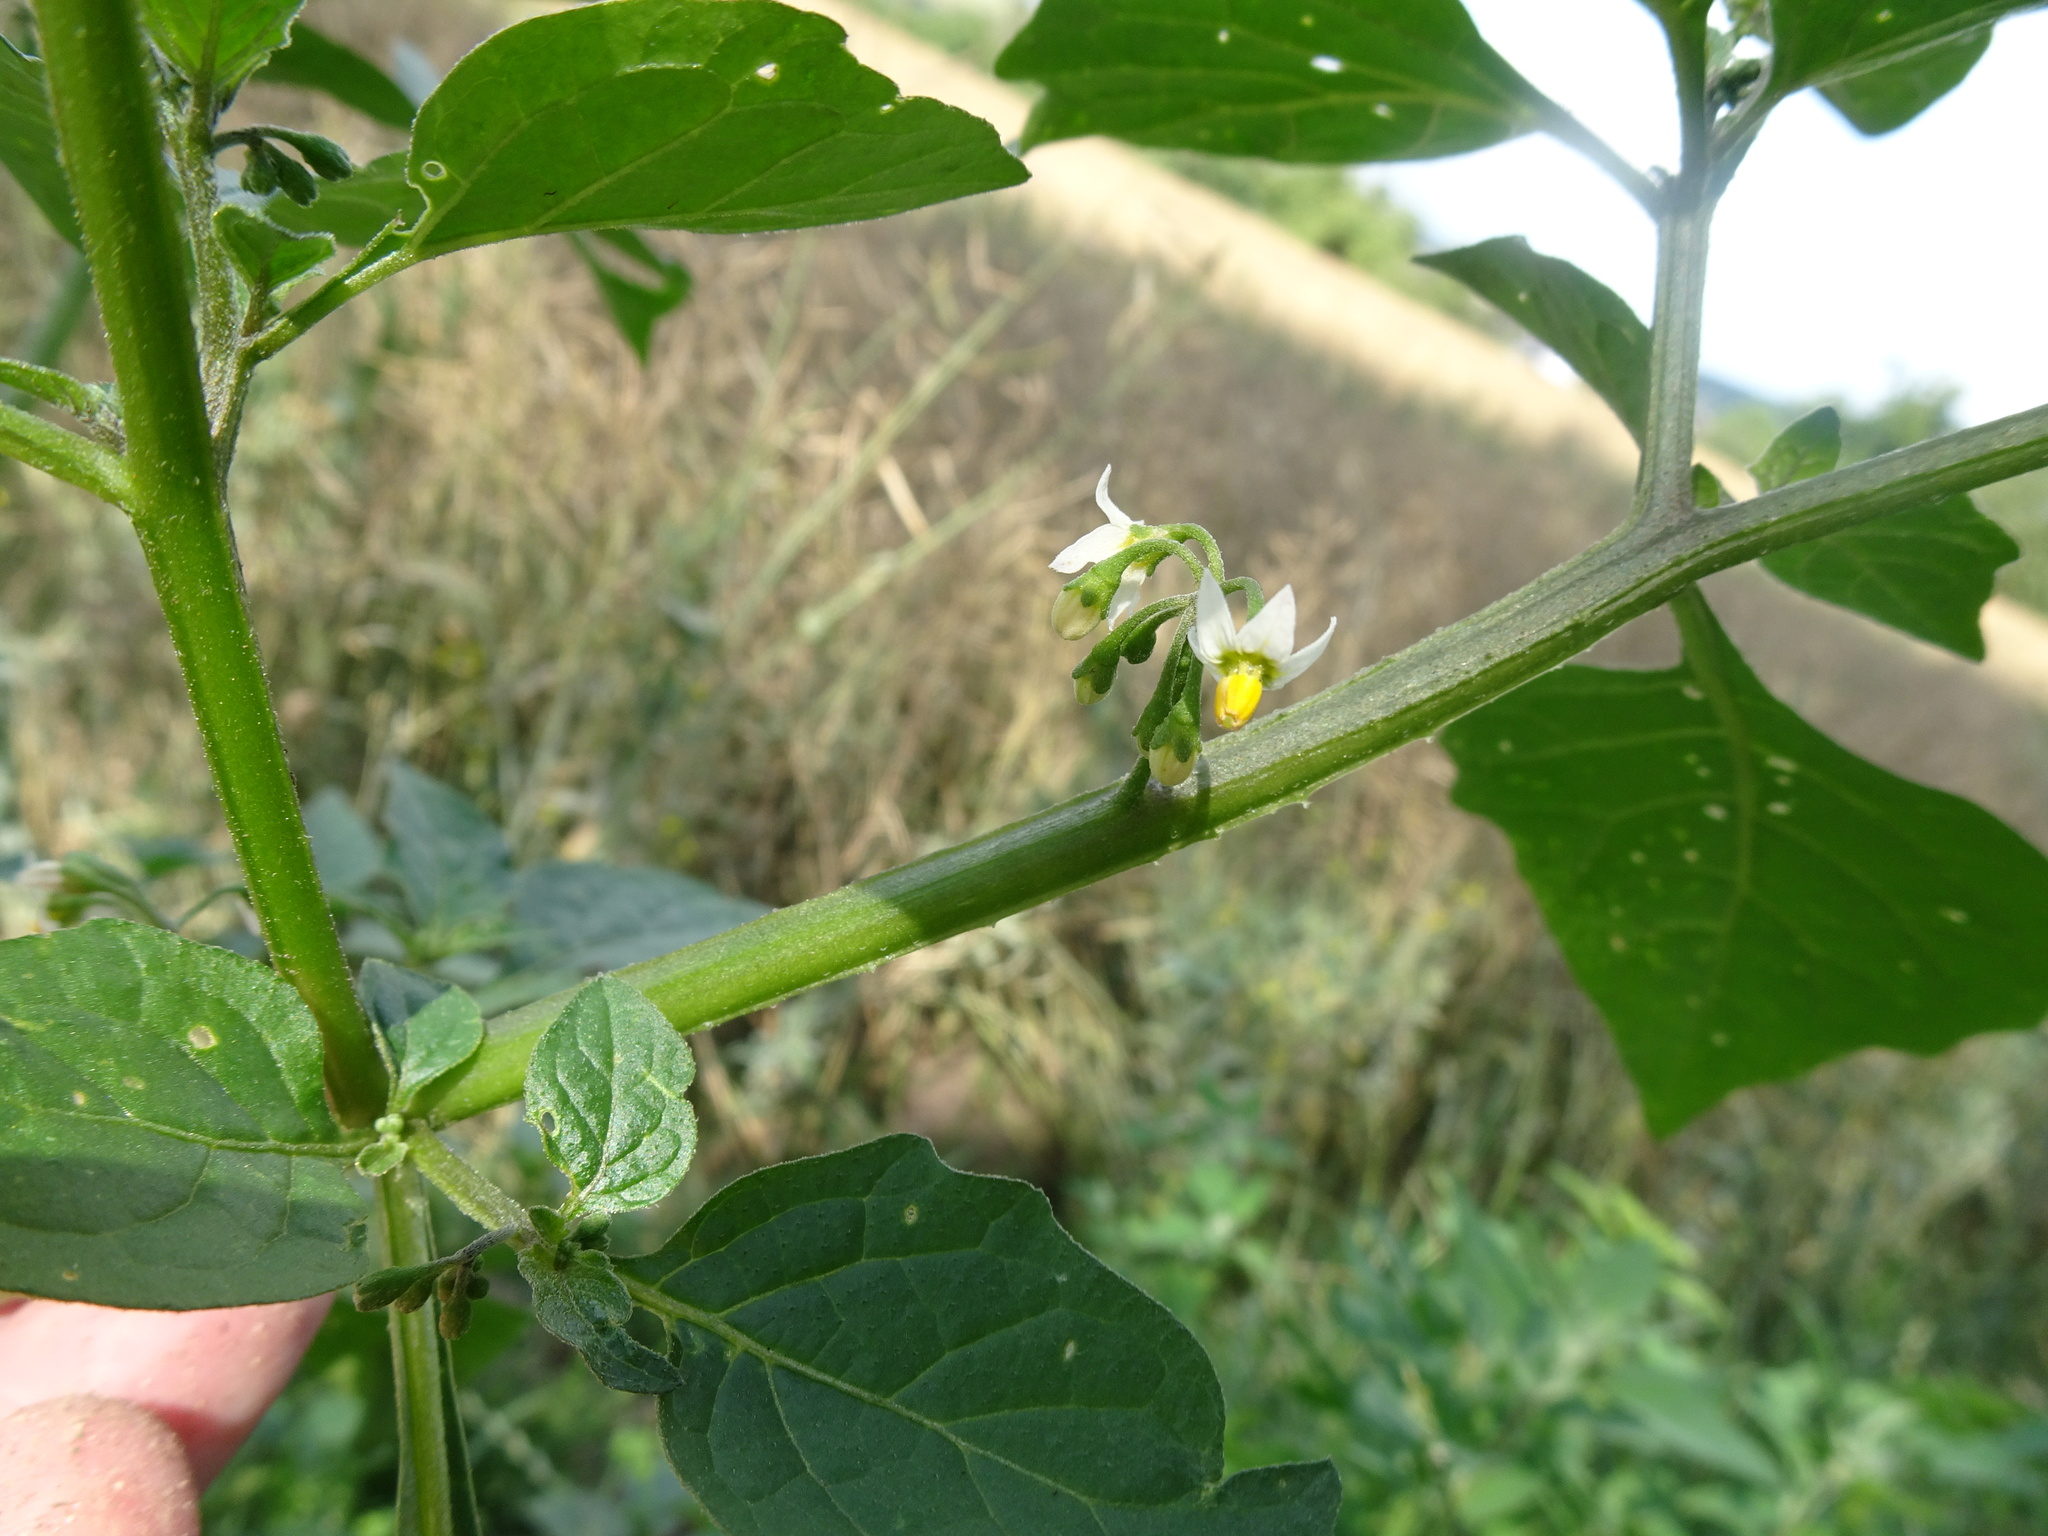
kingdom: Plantae
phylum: Tracheophyta
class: Magnoliopsida
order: Solanales
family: Solanaceae
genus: Solanum
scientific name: Solanum nigrum
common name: Black nightshade
